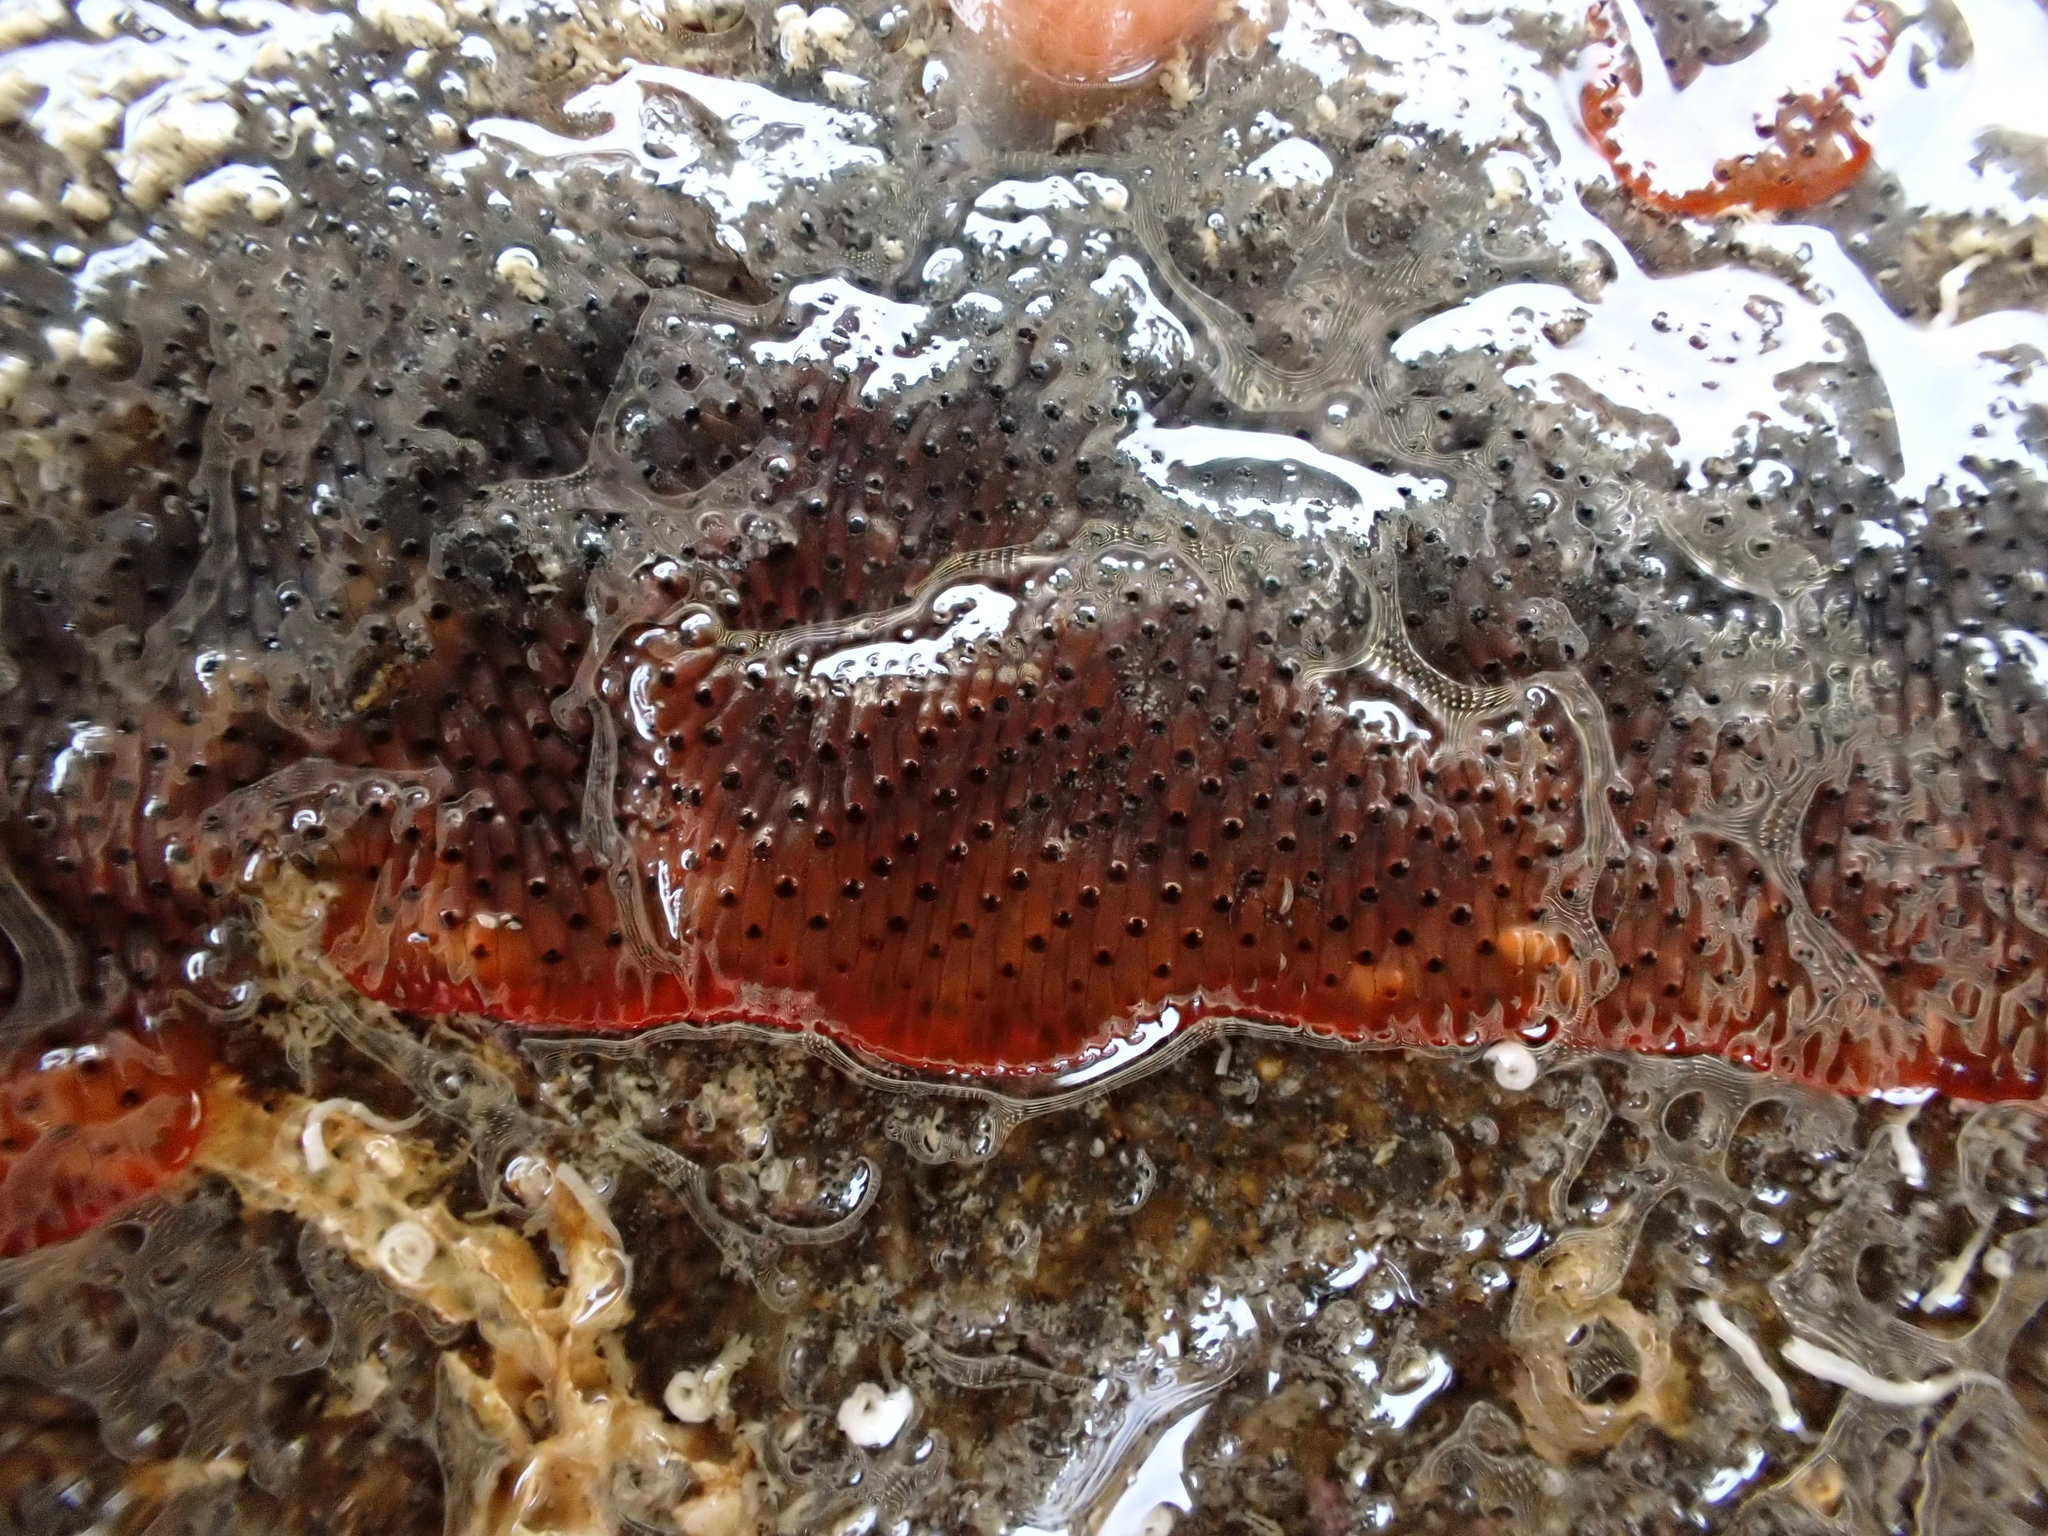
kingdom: Animalia
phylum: Bryozoa
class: Gymnolaemata
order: Cheilostomatida
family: Watersiporidae
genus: Watersipora
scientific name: Watersipora subatra
